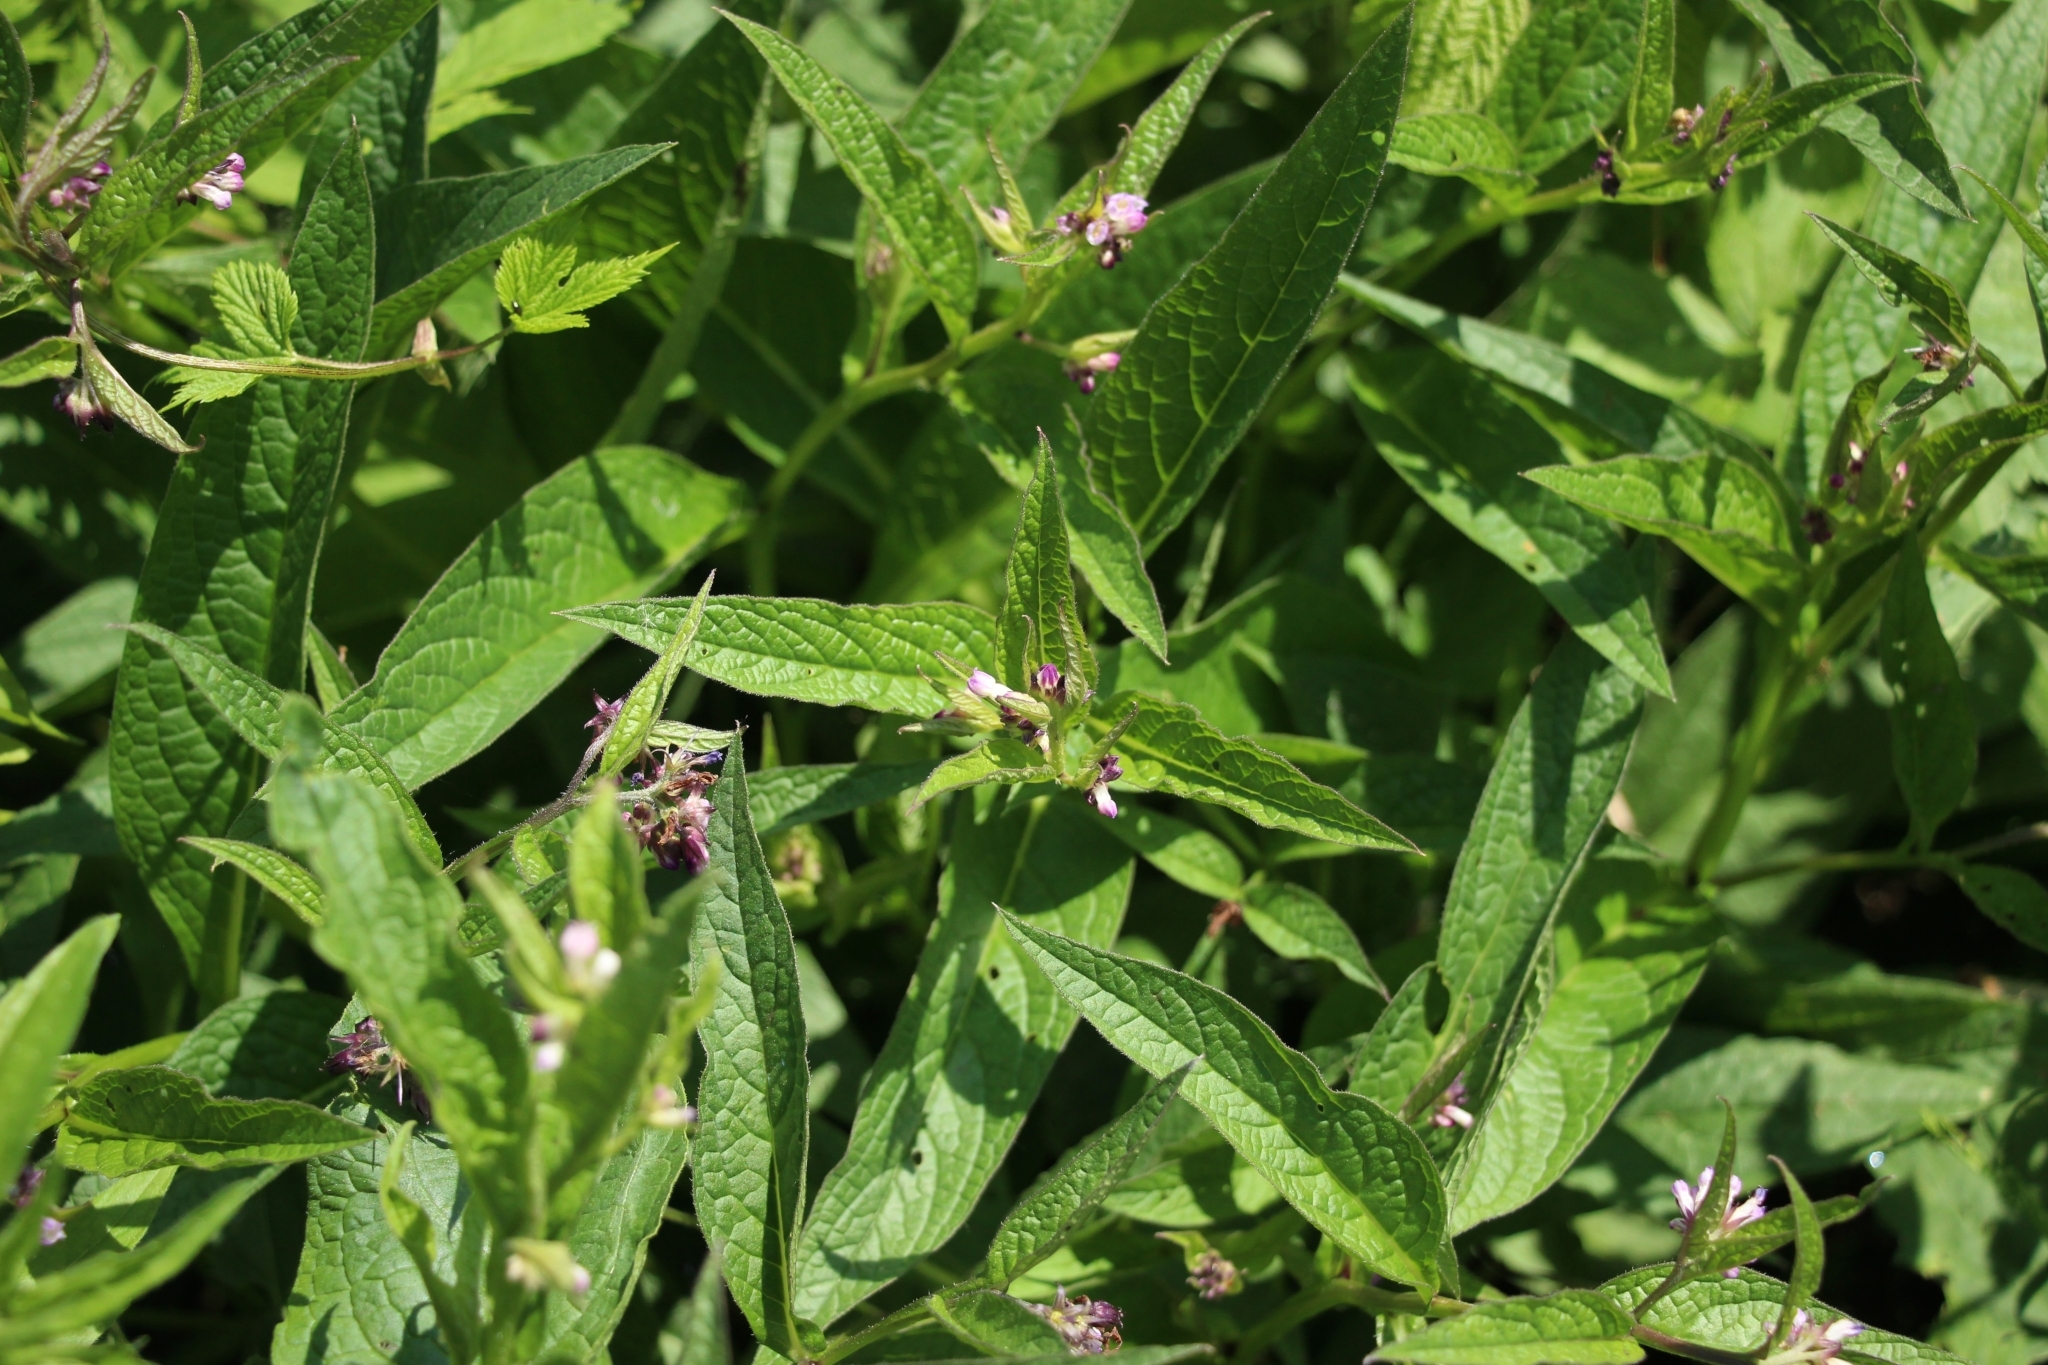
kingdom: Plantae
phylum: Tracheophyta
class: Magnoliopsida
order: Boraginales
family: Boraginaceae
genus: Symphytum
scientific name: Symphytum officinale
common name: Common comfrey
